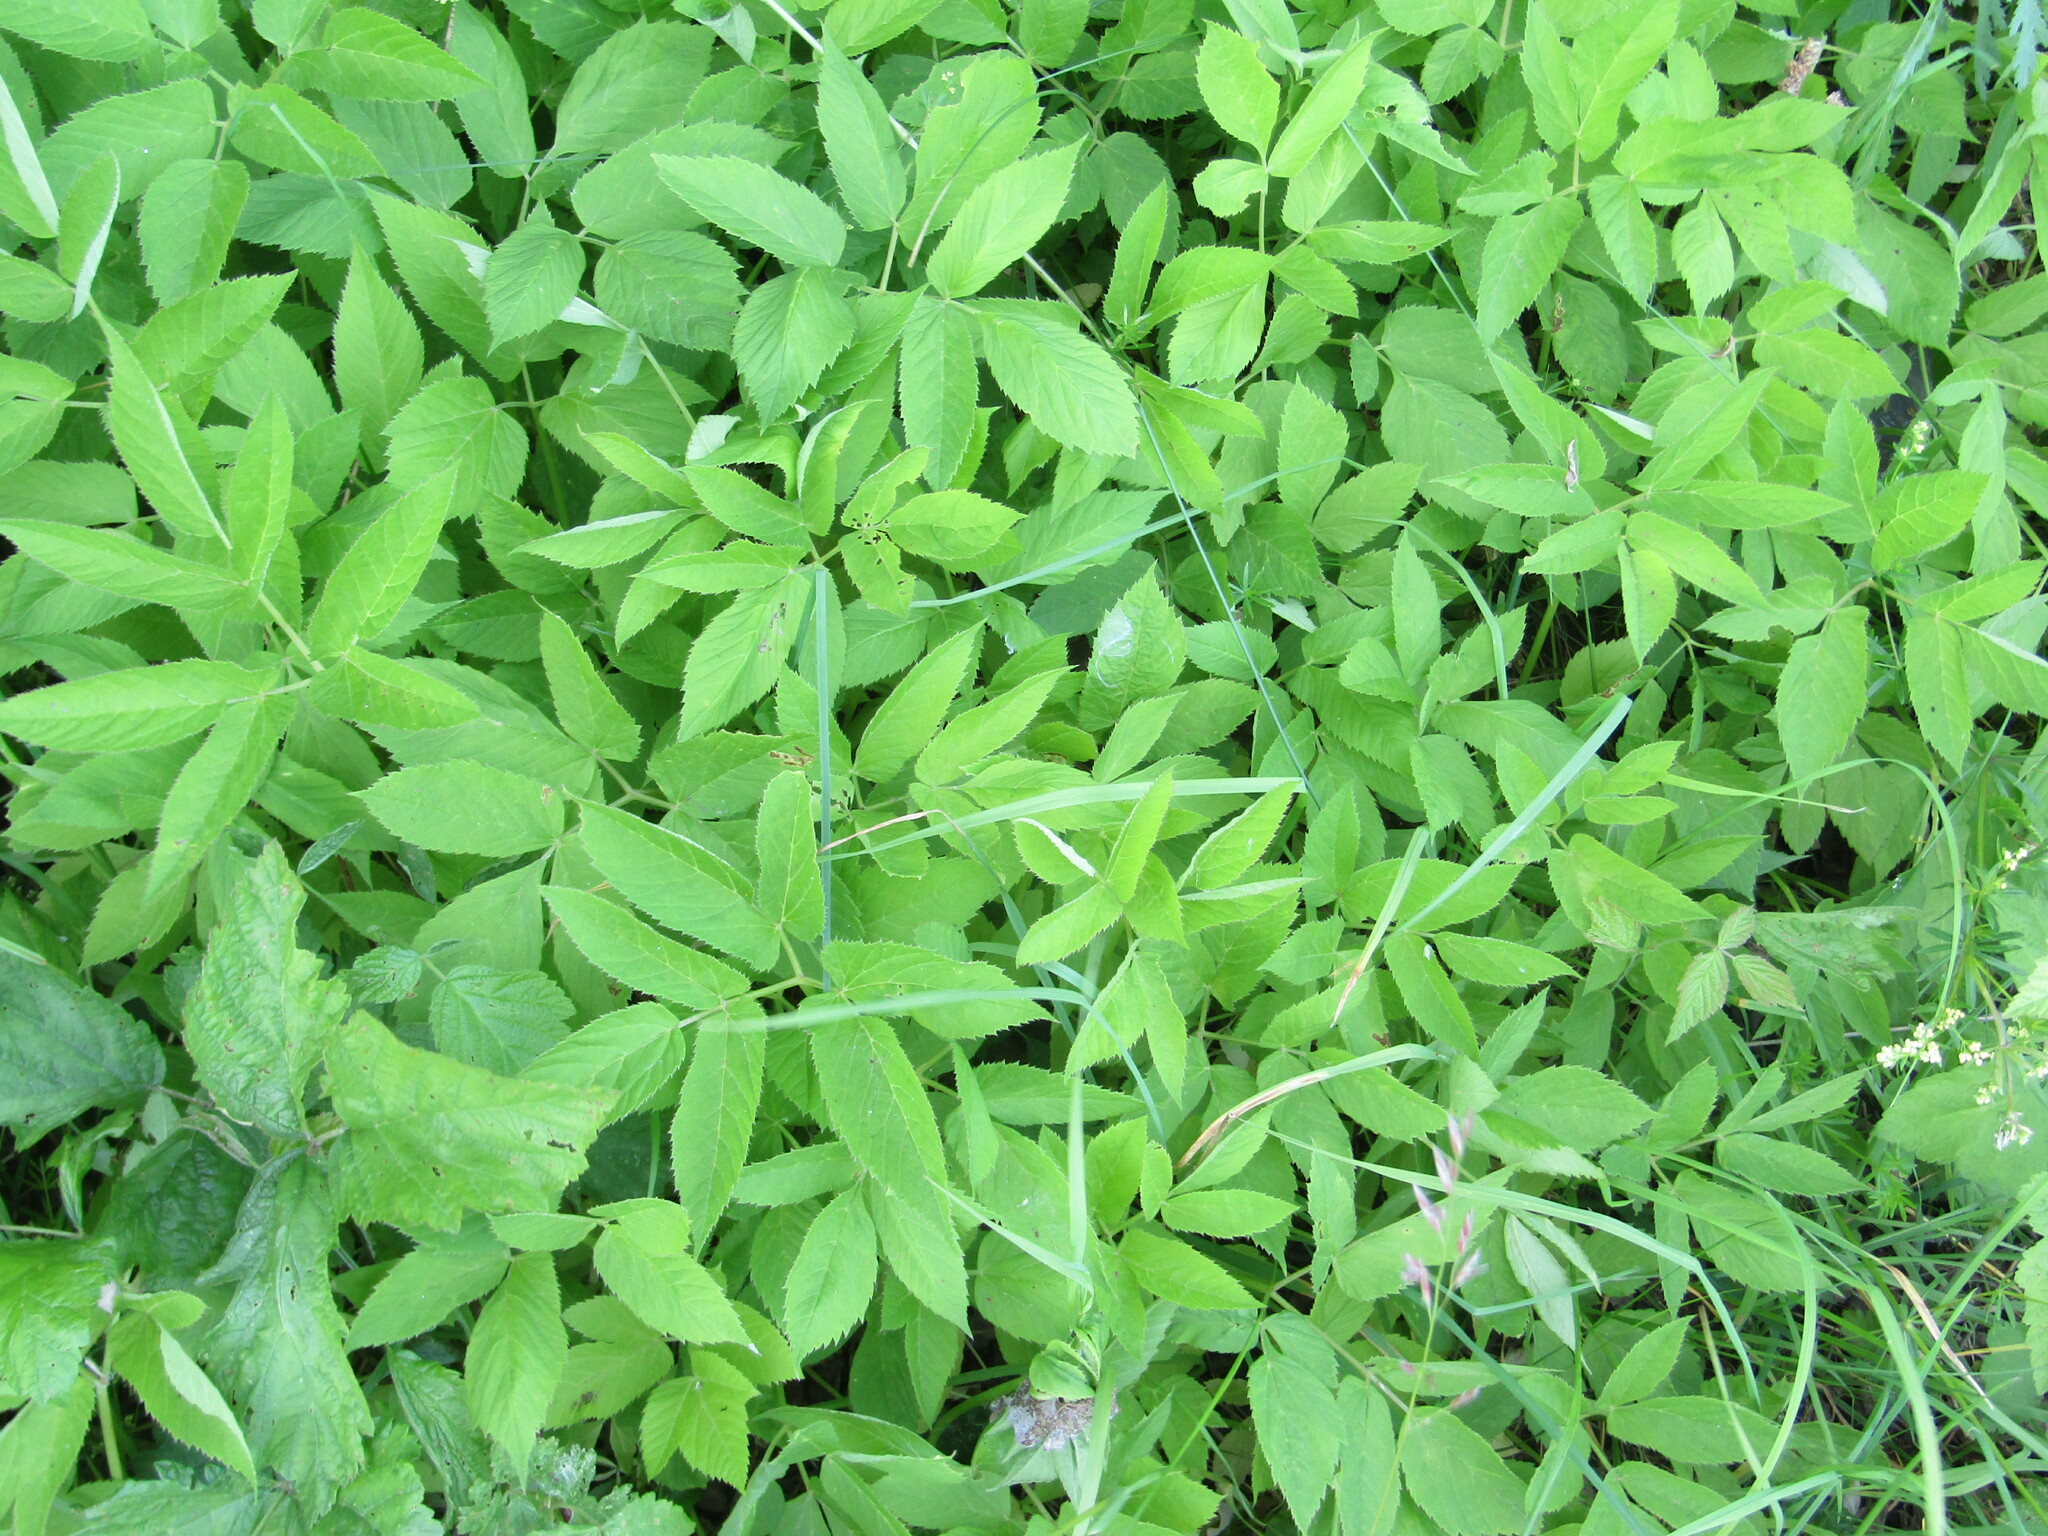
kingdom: Plantae
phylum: Tracheophyta
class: Magnoliopsida
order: Apiales
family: Apiaceae
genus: Aegopodium
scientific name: Aegopodium podagraria
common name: Ground-elder
